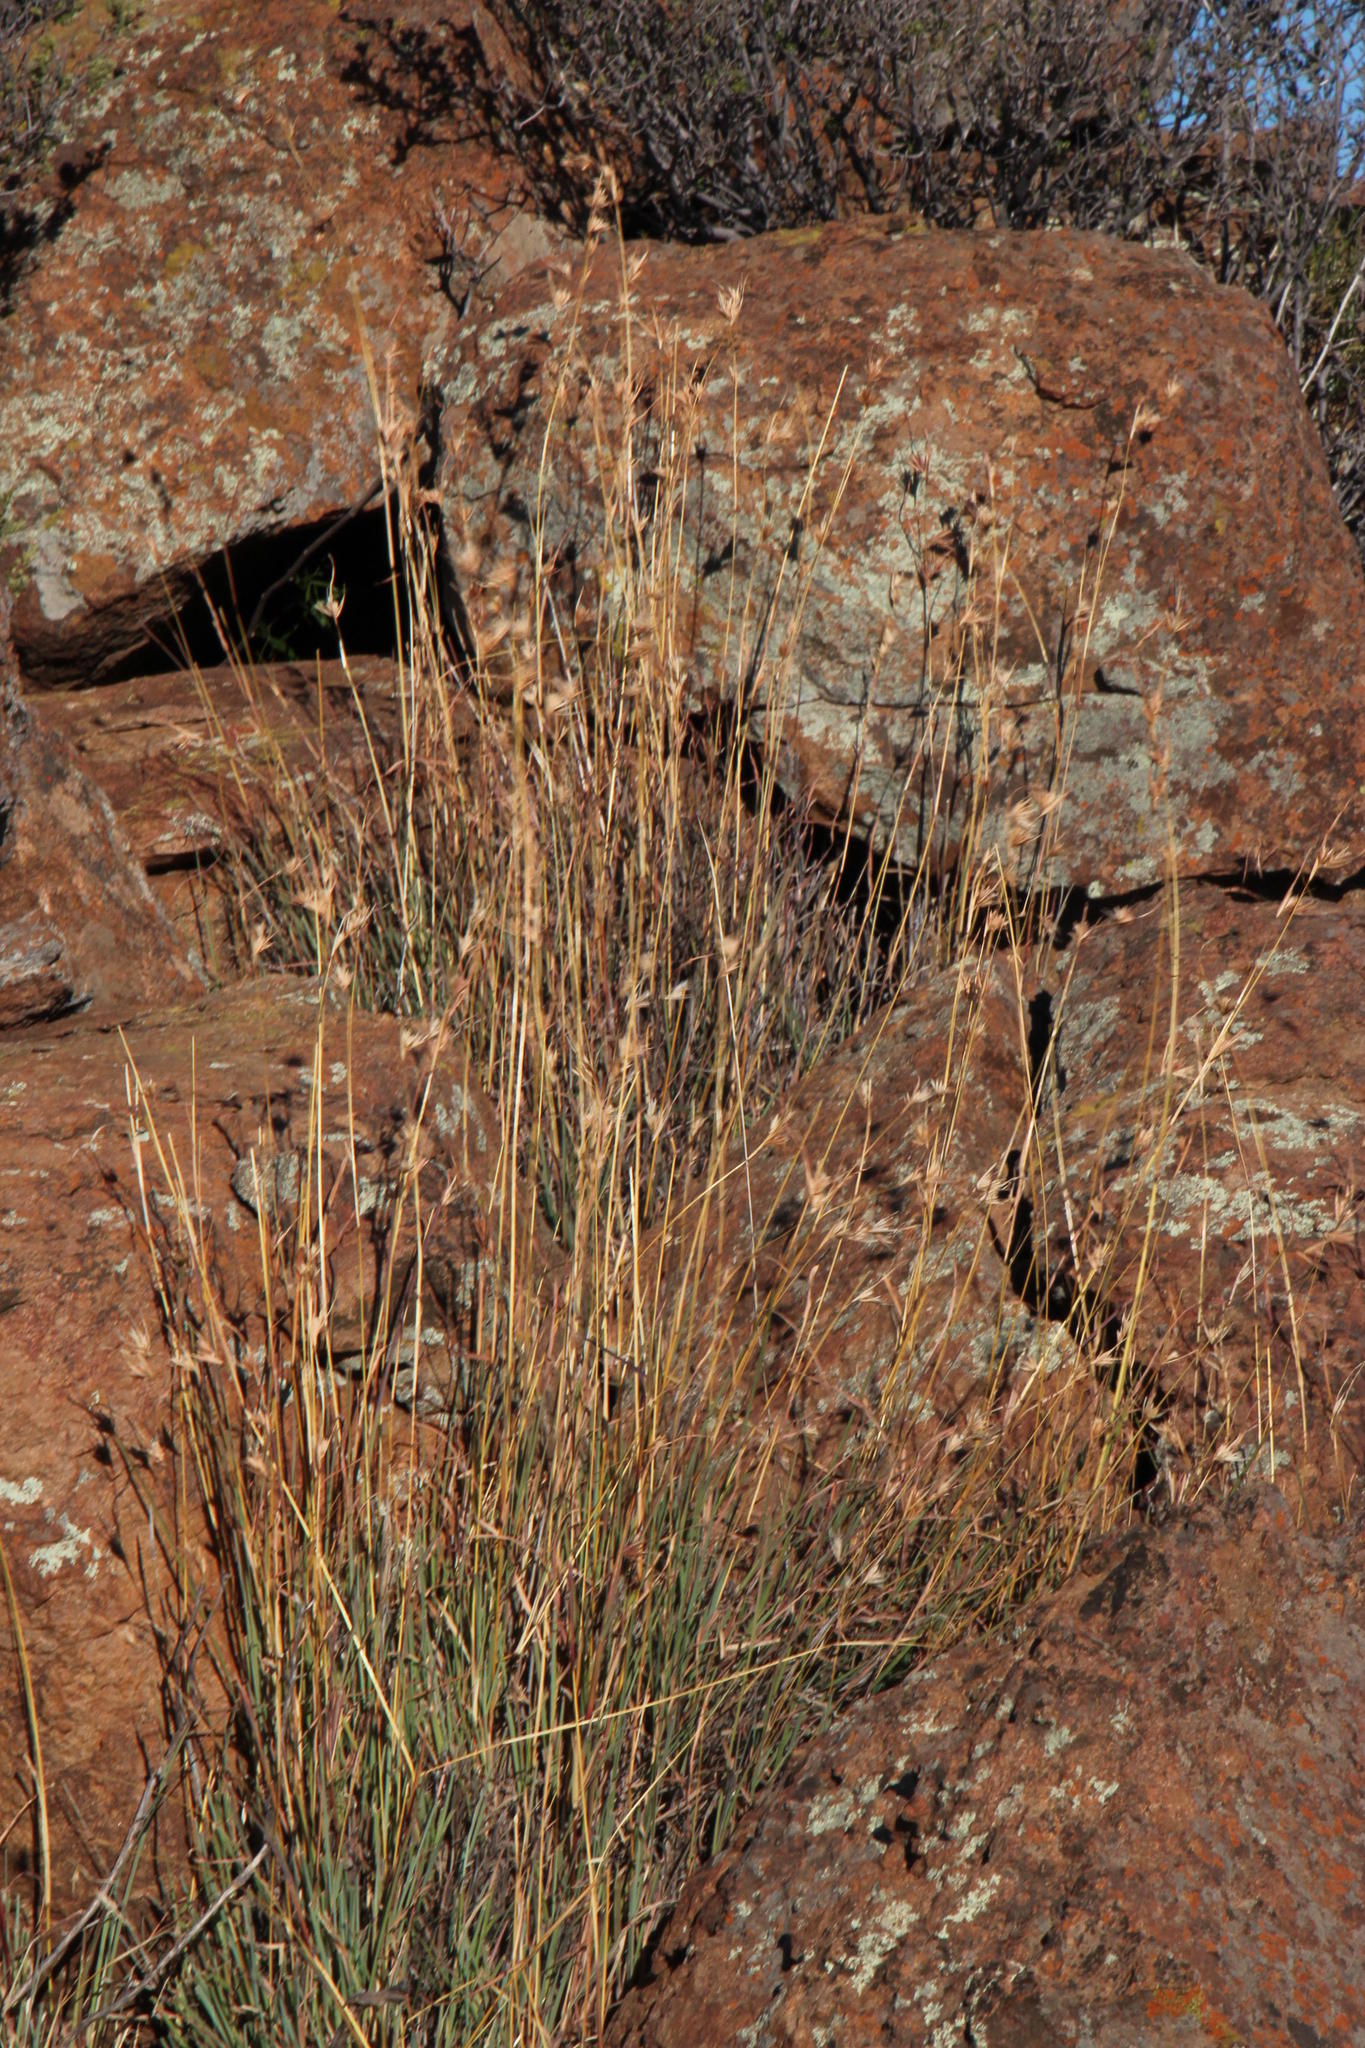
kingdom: Plantae
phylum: Tracheophyta
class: Liliopsida
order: Poales
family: Poaceae
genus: Themeda
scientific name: Themeda triandra
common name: Kangaroo grass
